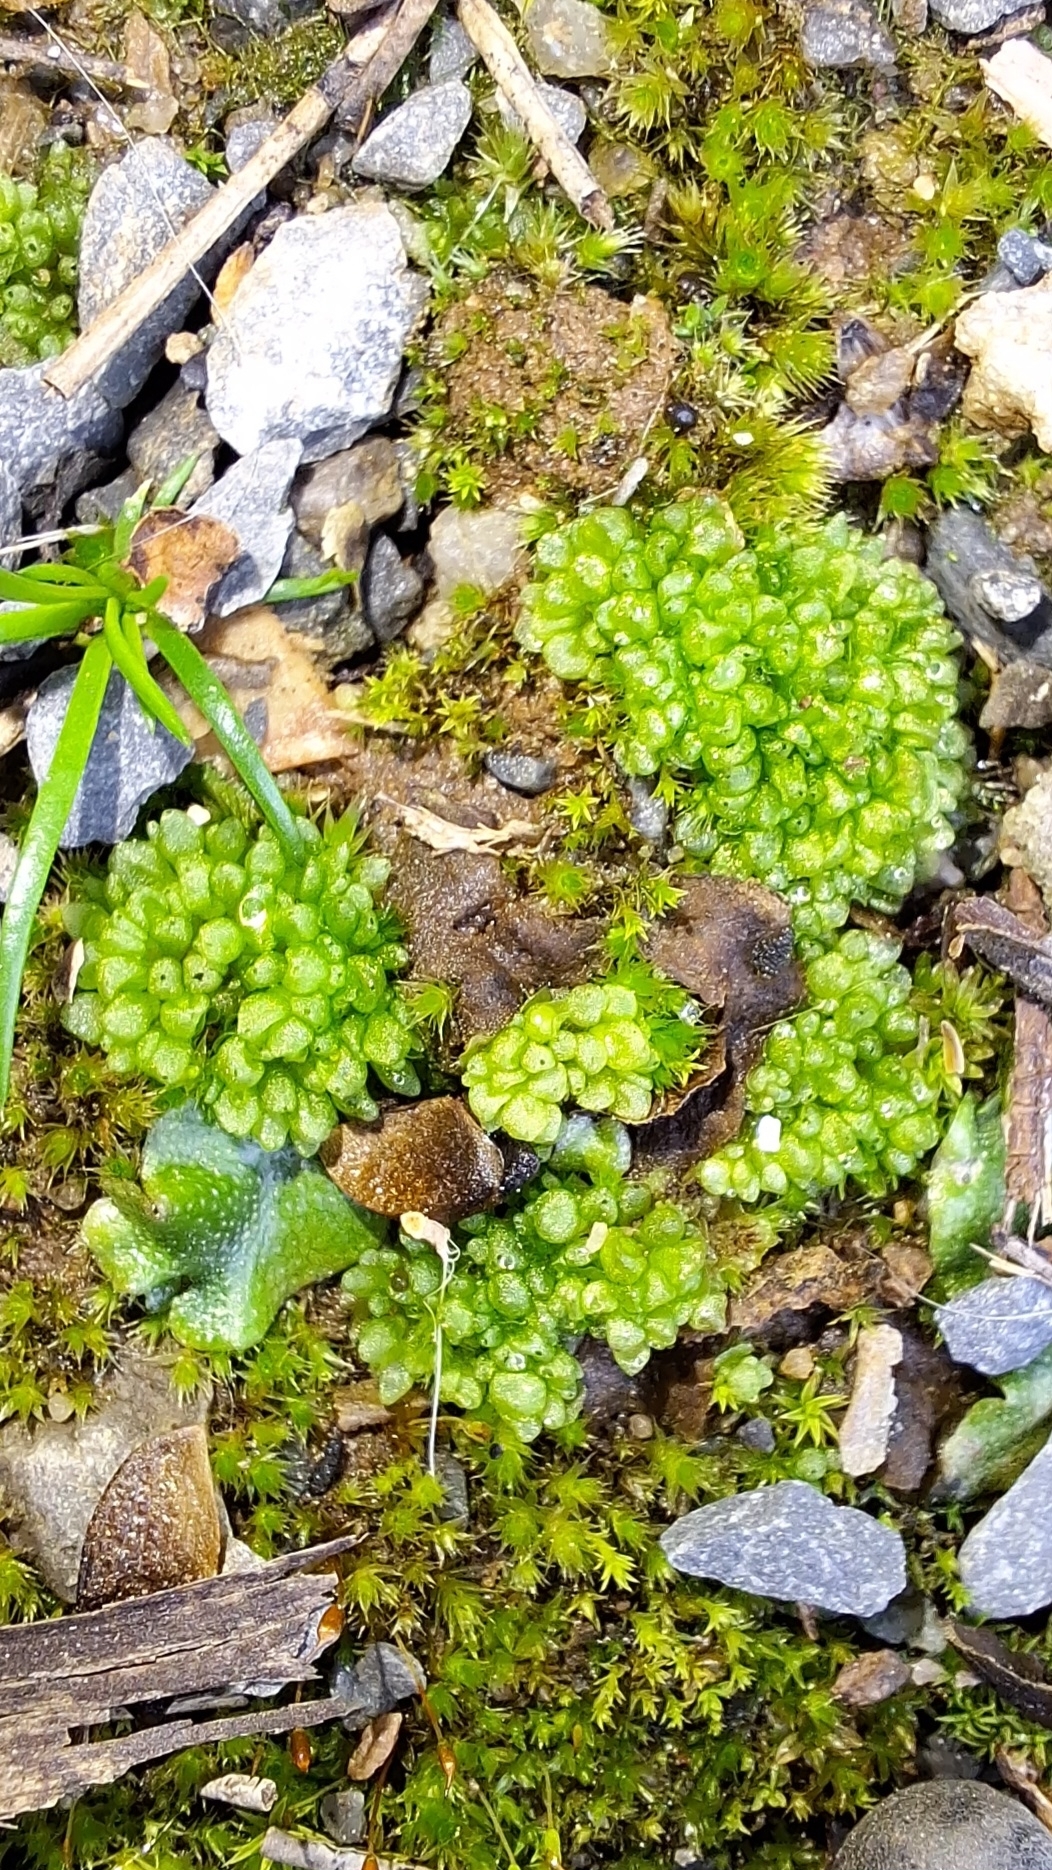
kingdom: Plantae
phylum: Marchantiophyta
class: Marchantiopsida
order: Sphaerocarpales
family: Sphaerocarpaceae
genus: Sphaerocarpos
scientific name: Sphaerocarpos texanus
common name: Texas balloonwort
